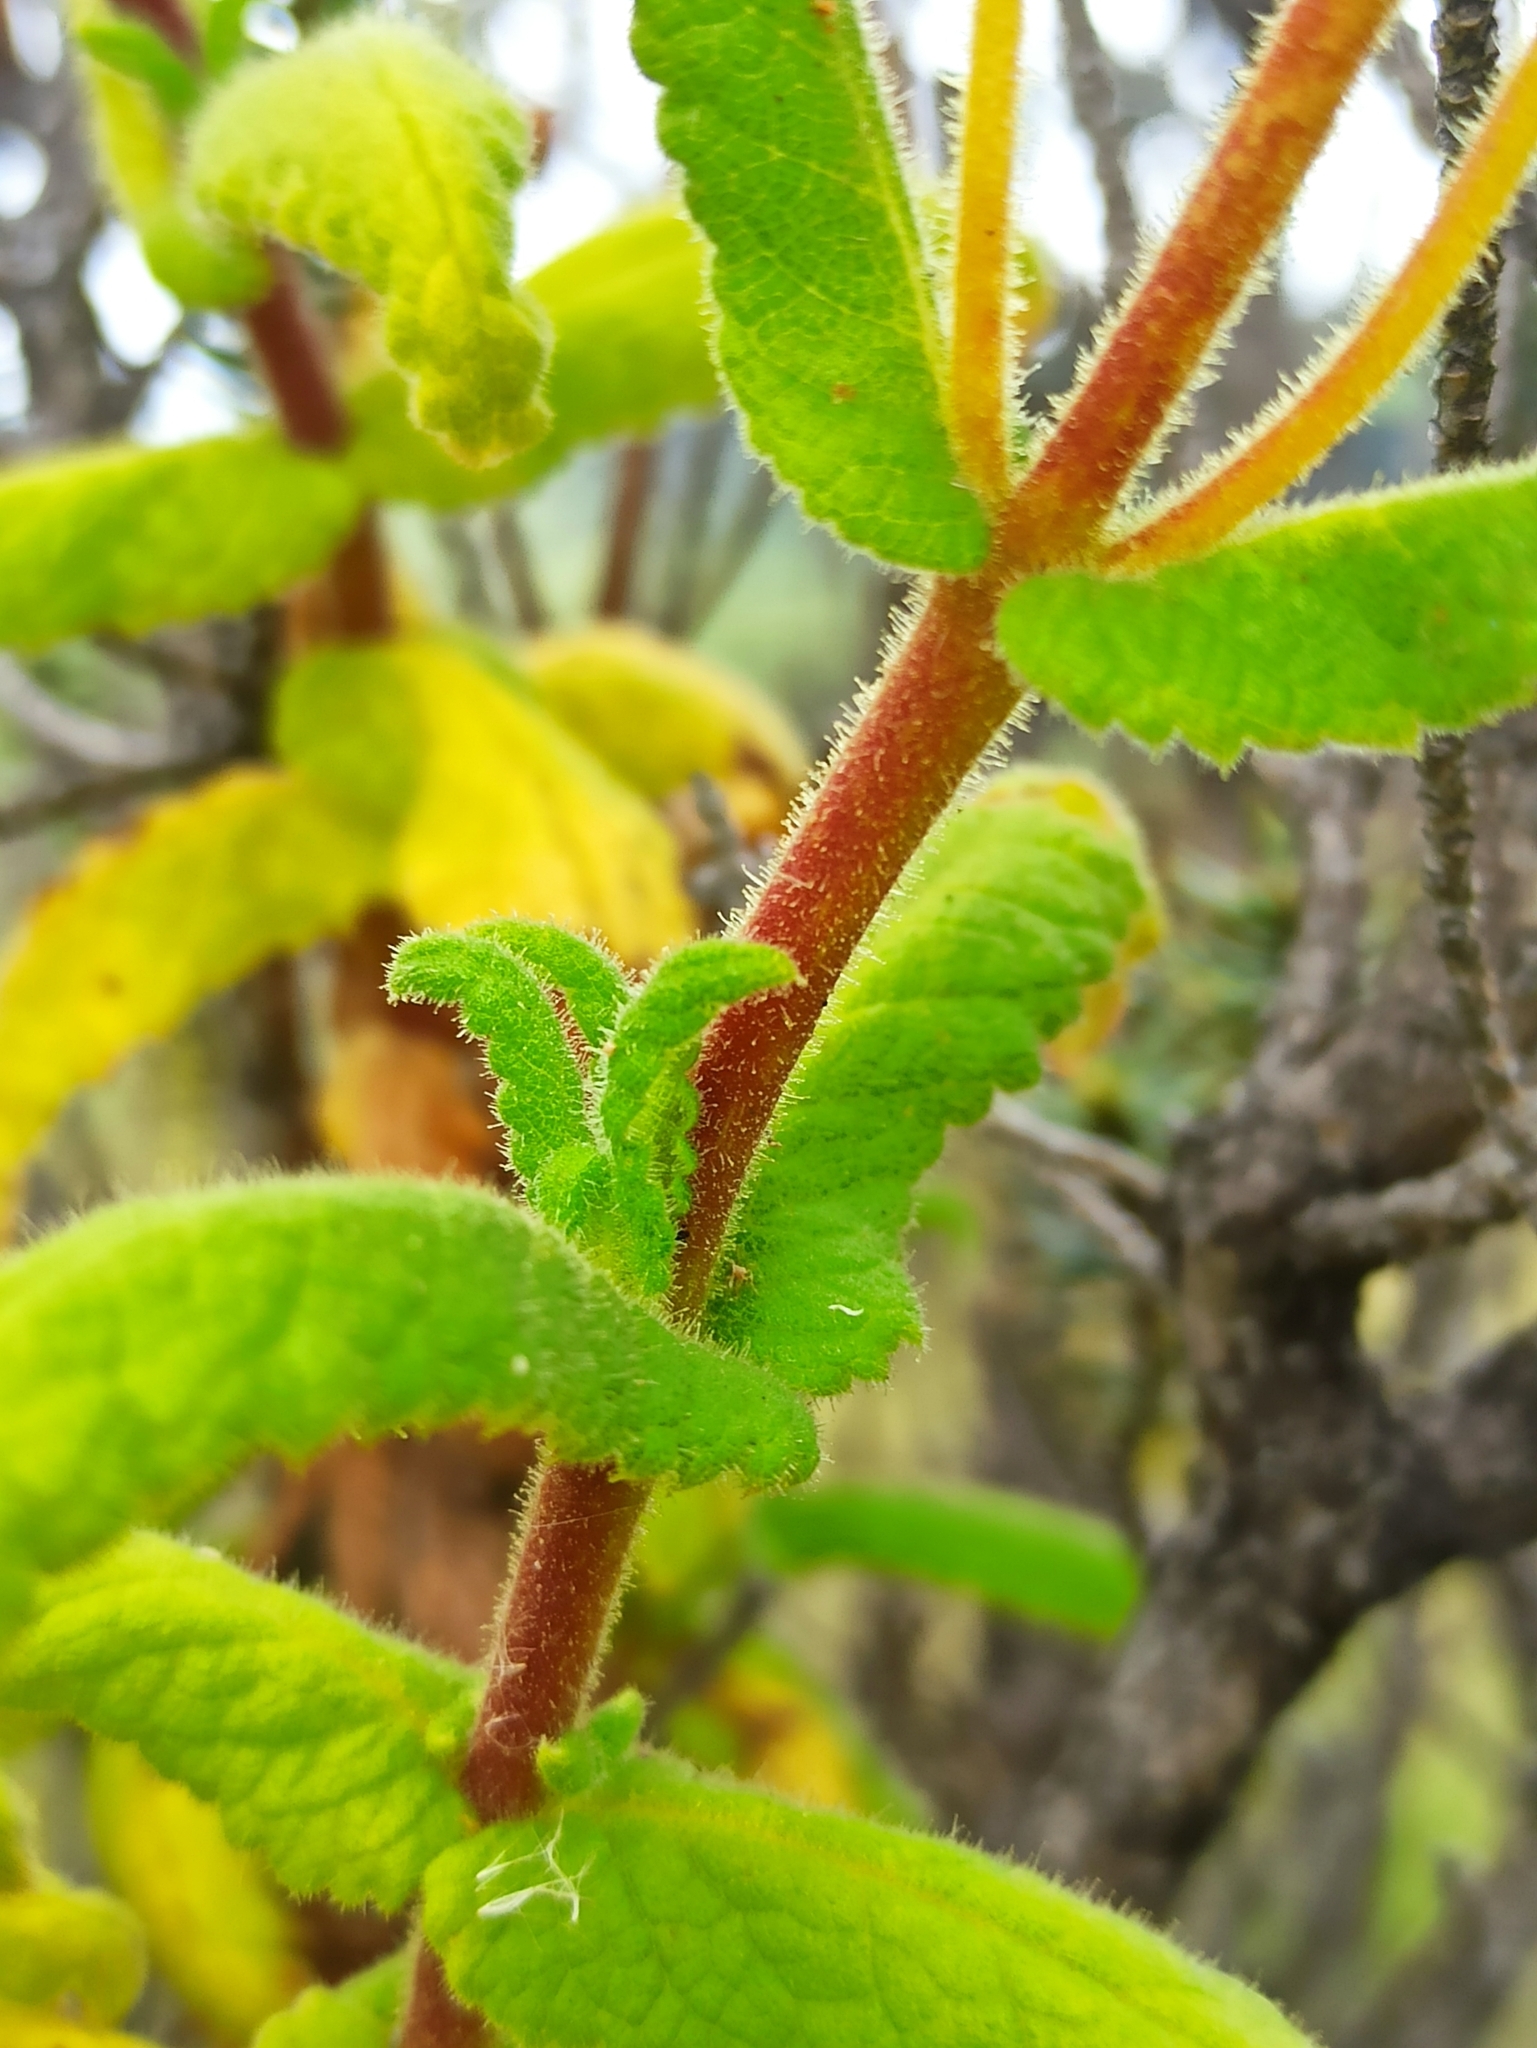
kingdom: Plantae
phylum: Tracheophyta
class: Magnoliopsida
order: Lamiales
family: Calceolariaceae
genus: Calceolaria
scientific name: Calceolaria crenata
